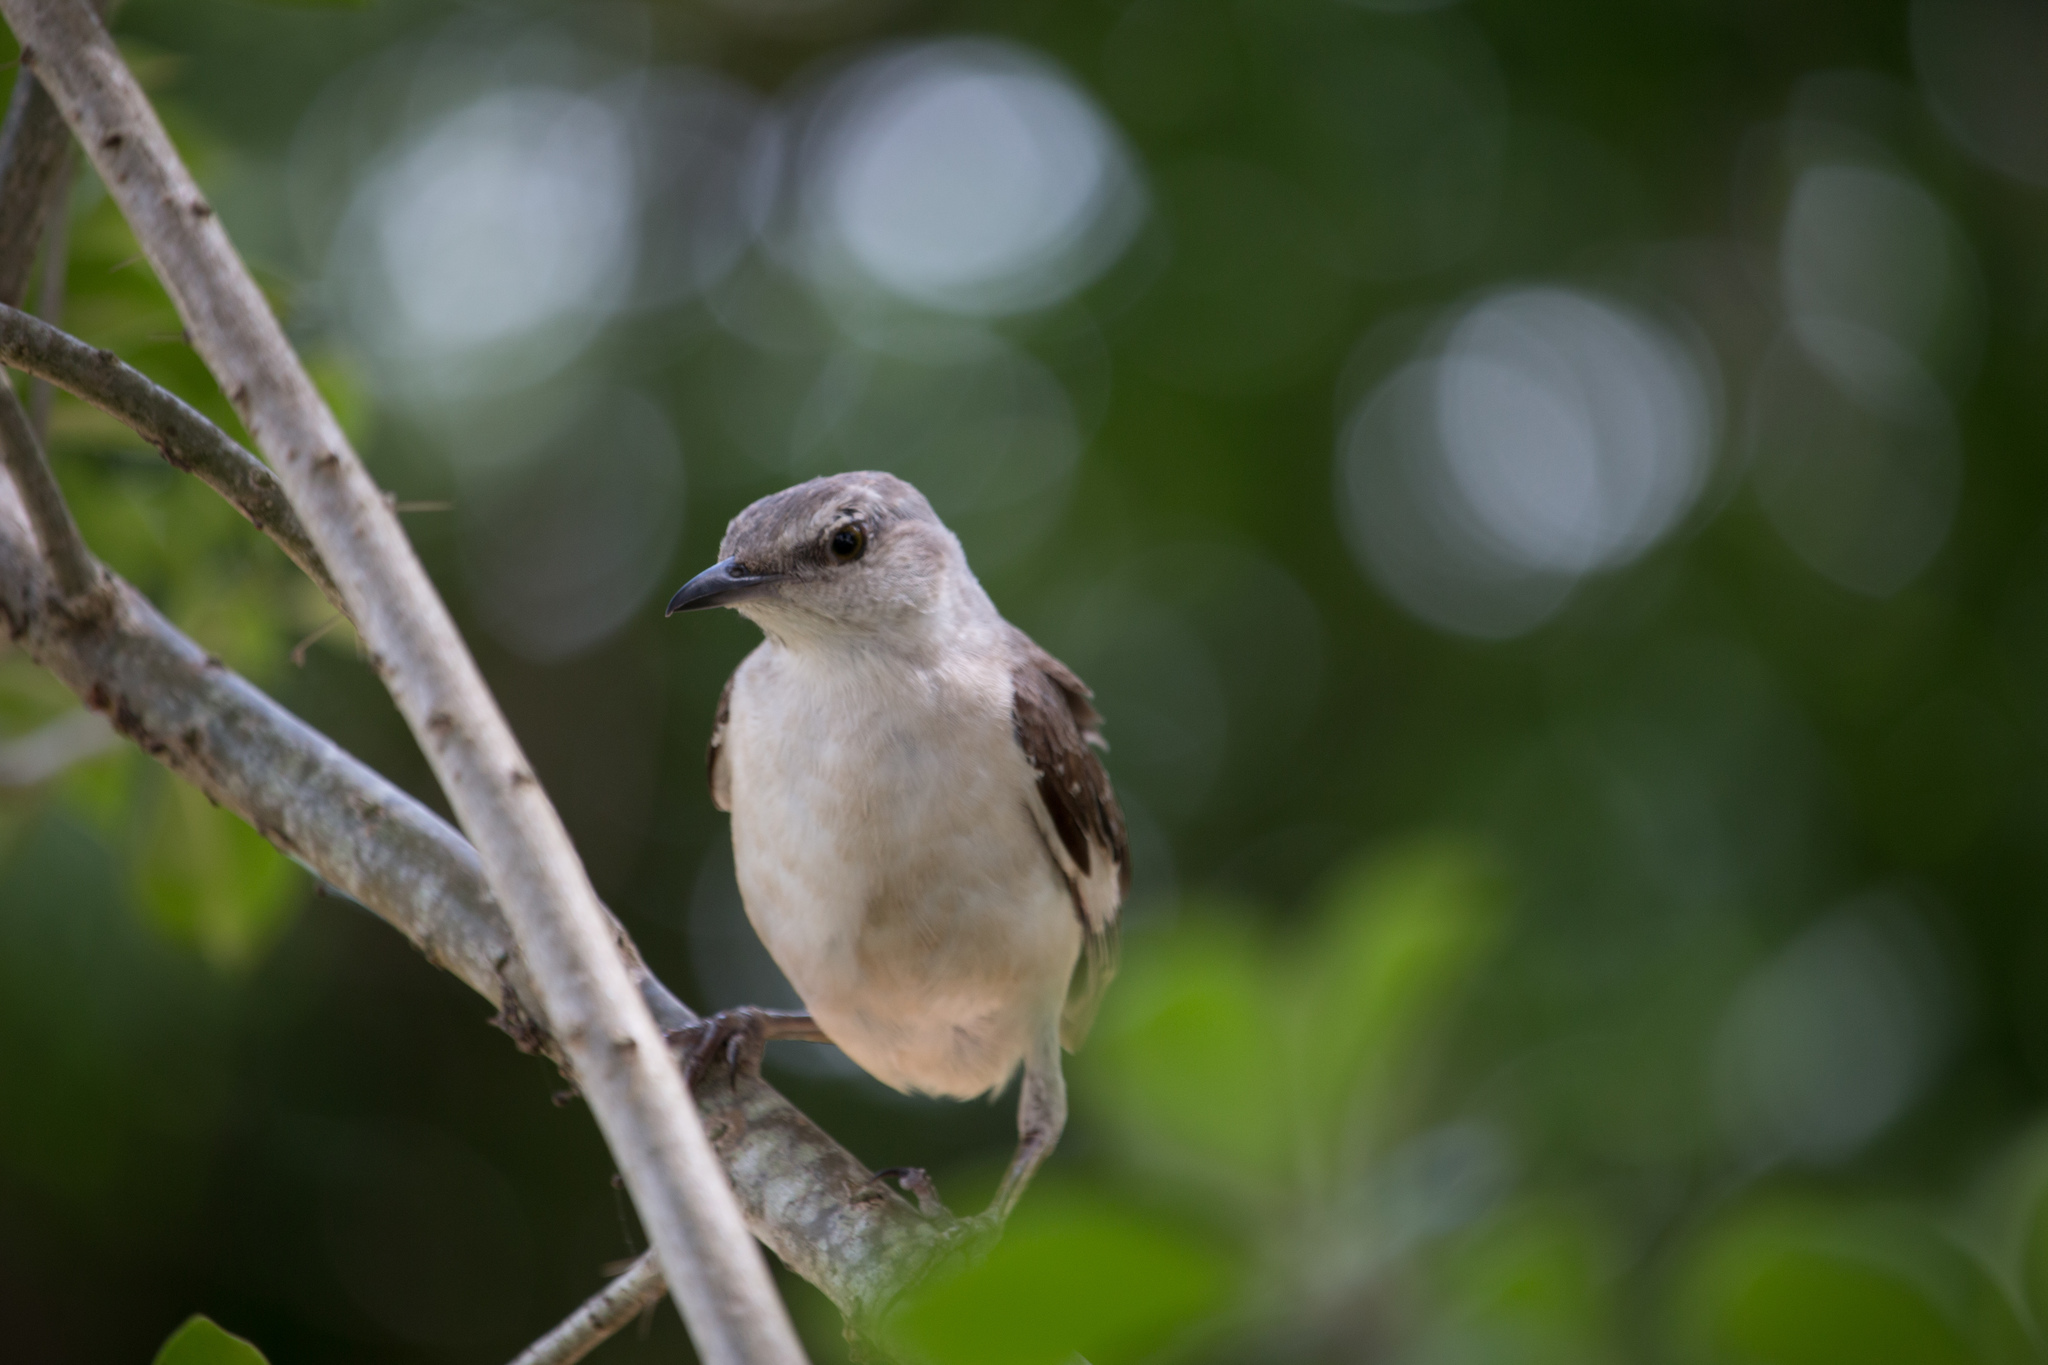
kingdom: Animalia
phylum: Chordata
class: Aves
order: Passeriformes
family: Mimidae
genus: Mimus
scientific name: Mimus polyglottos
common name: Northern mockingbird
